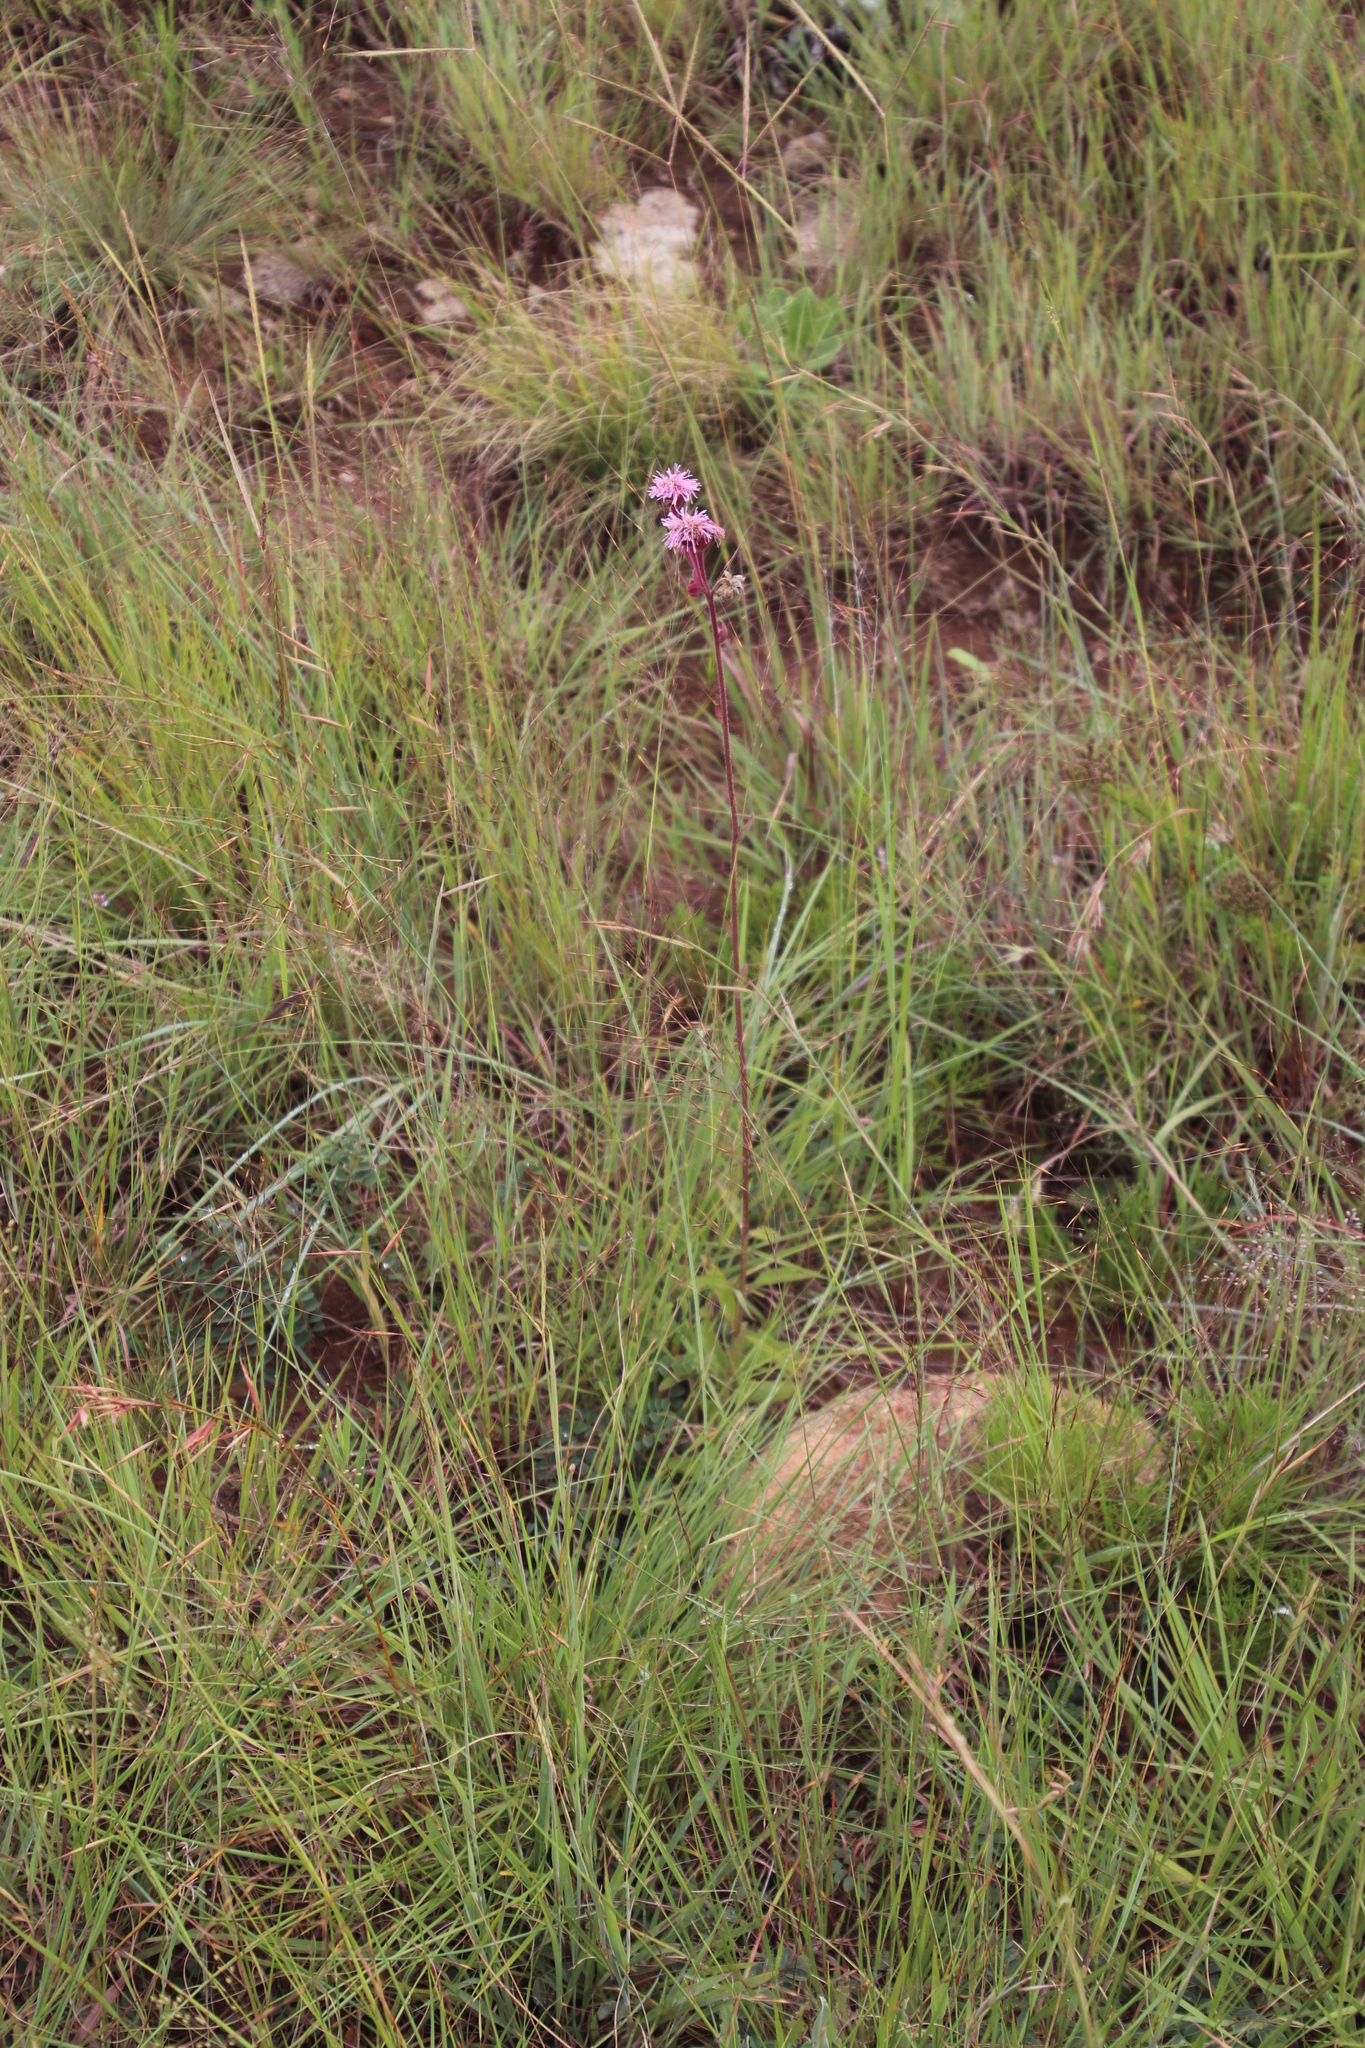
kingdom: Plantae
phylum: Tracheophyta
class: Magnoliopsida
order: Asterales
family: Asteraceae
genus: Campuloclinium
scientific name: Campuloclinium macrocephalum
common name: Pompomweed
